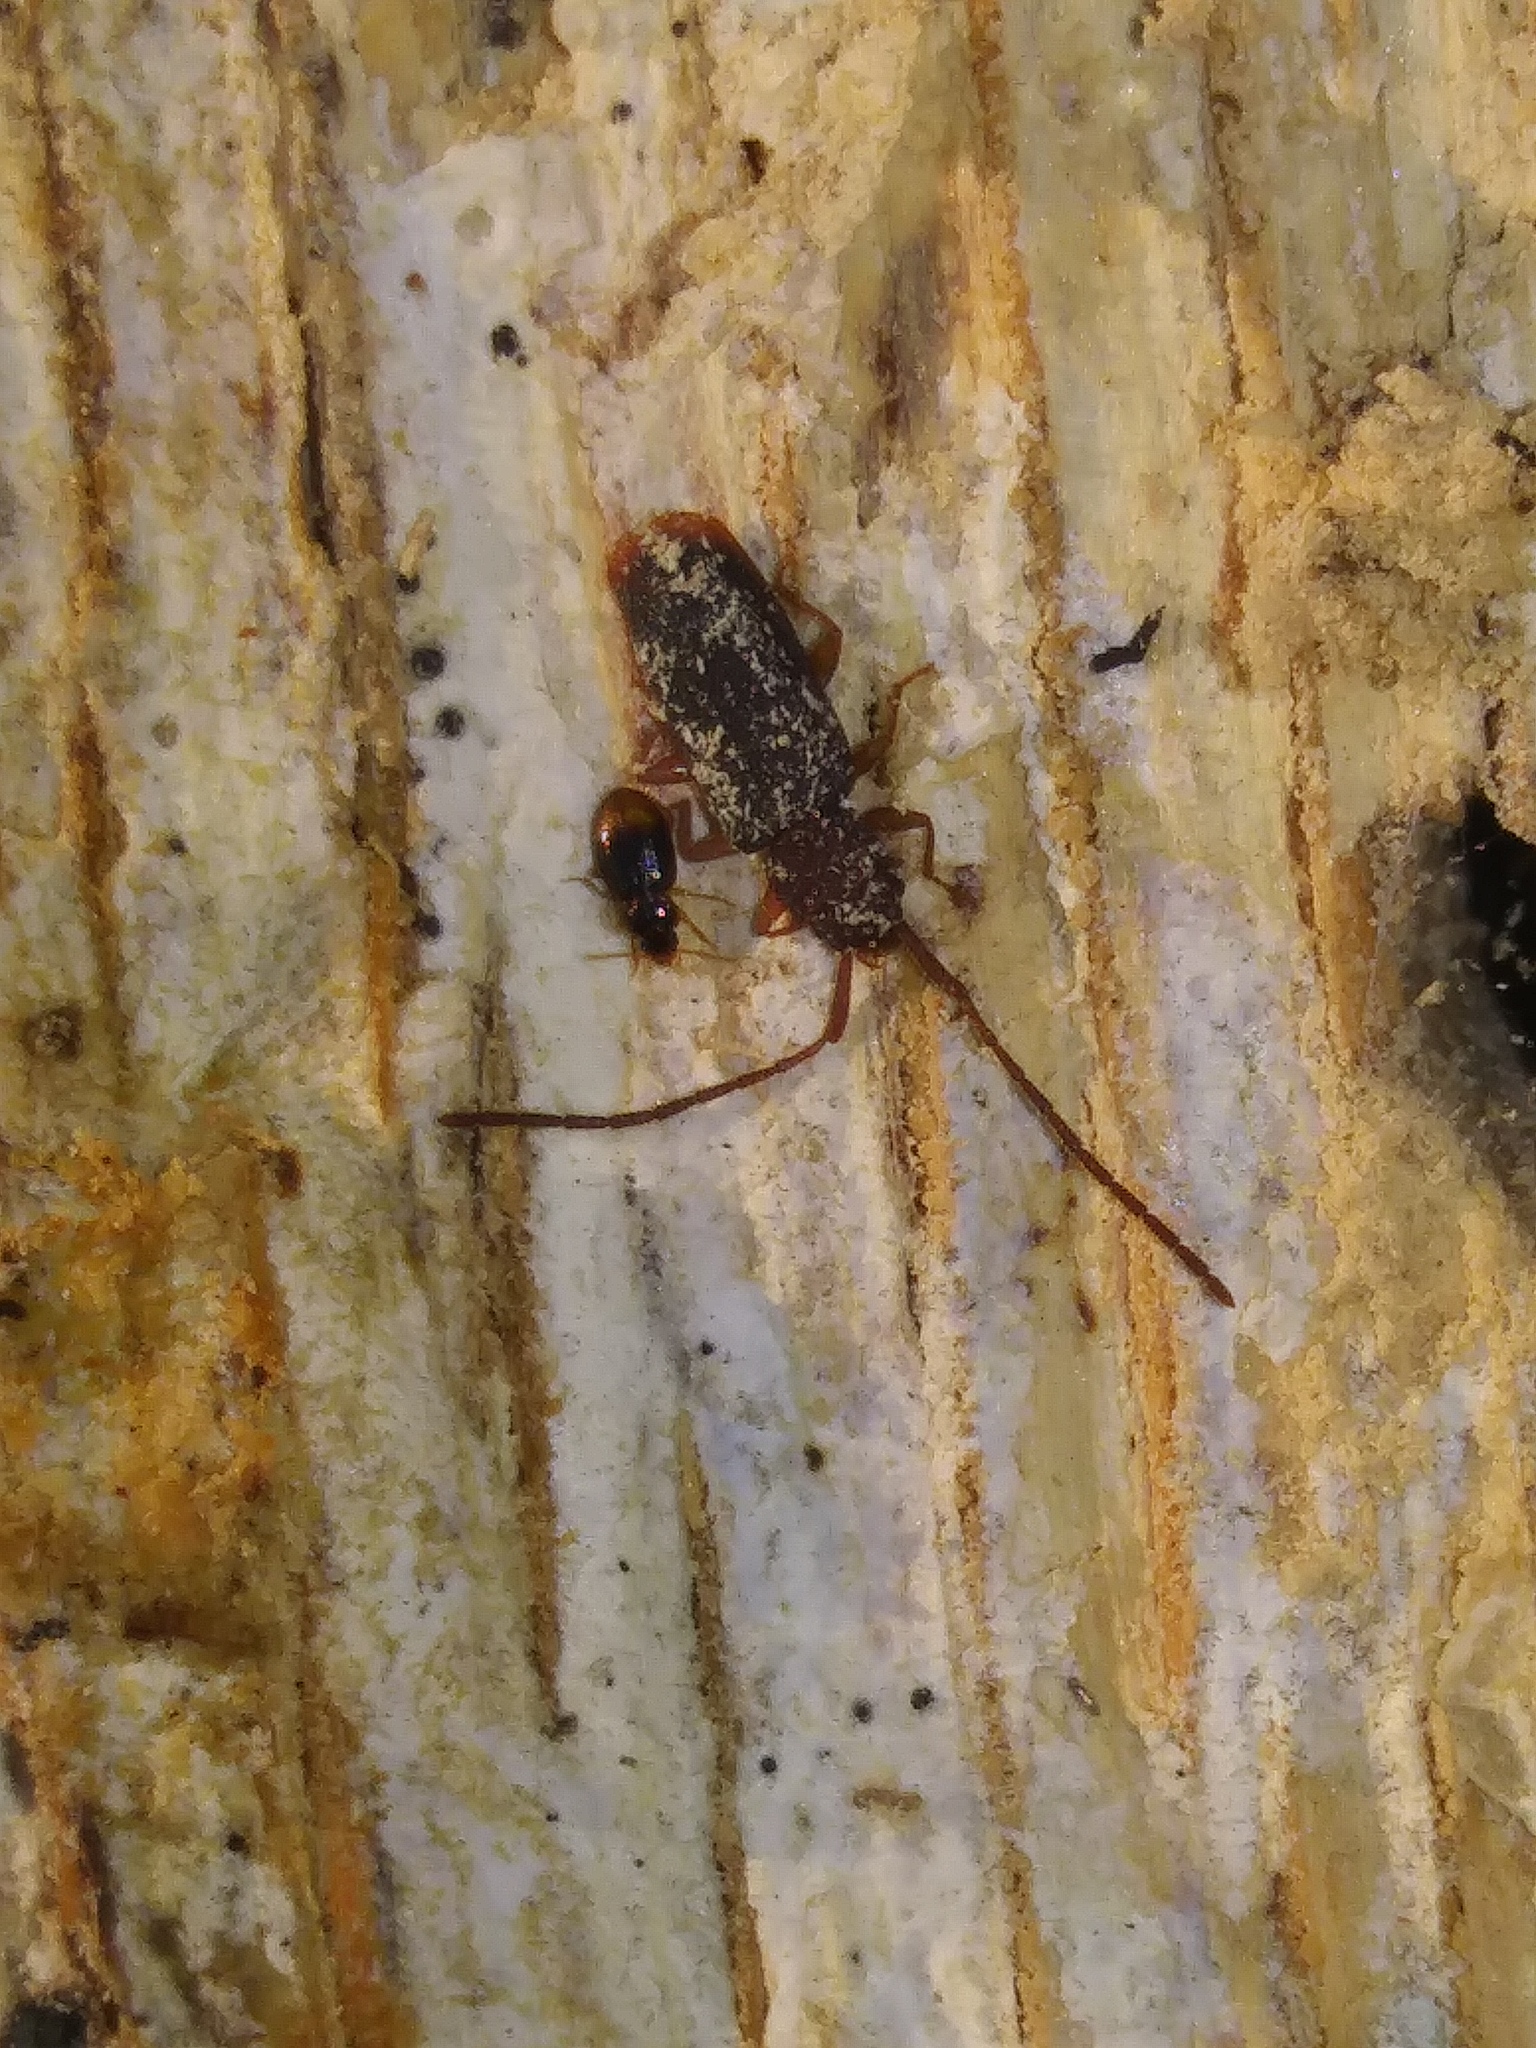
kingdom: Animalia
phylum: Arthropoda
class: Insecta
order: Coleoptera
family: Carabidae
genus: Mioptachys
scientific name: Mioptachys flavicauda
